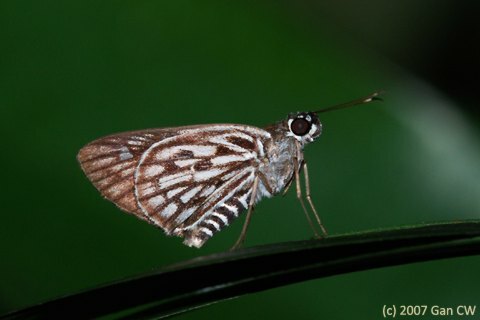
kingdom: Animalia
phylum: Arthropoda
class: Insecta
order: Lepidoptera
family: Hesperiidae
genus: Plastingia
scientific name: Plastingia naga
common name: Chequered lancer
